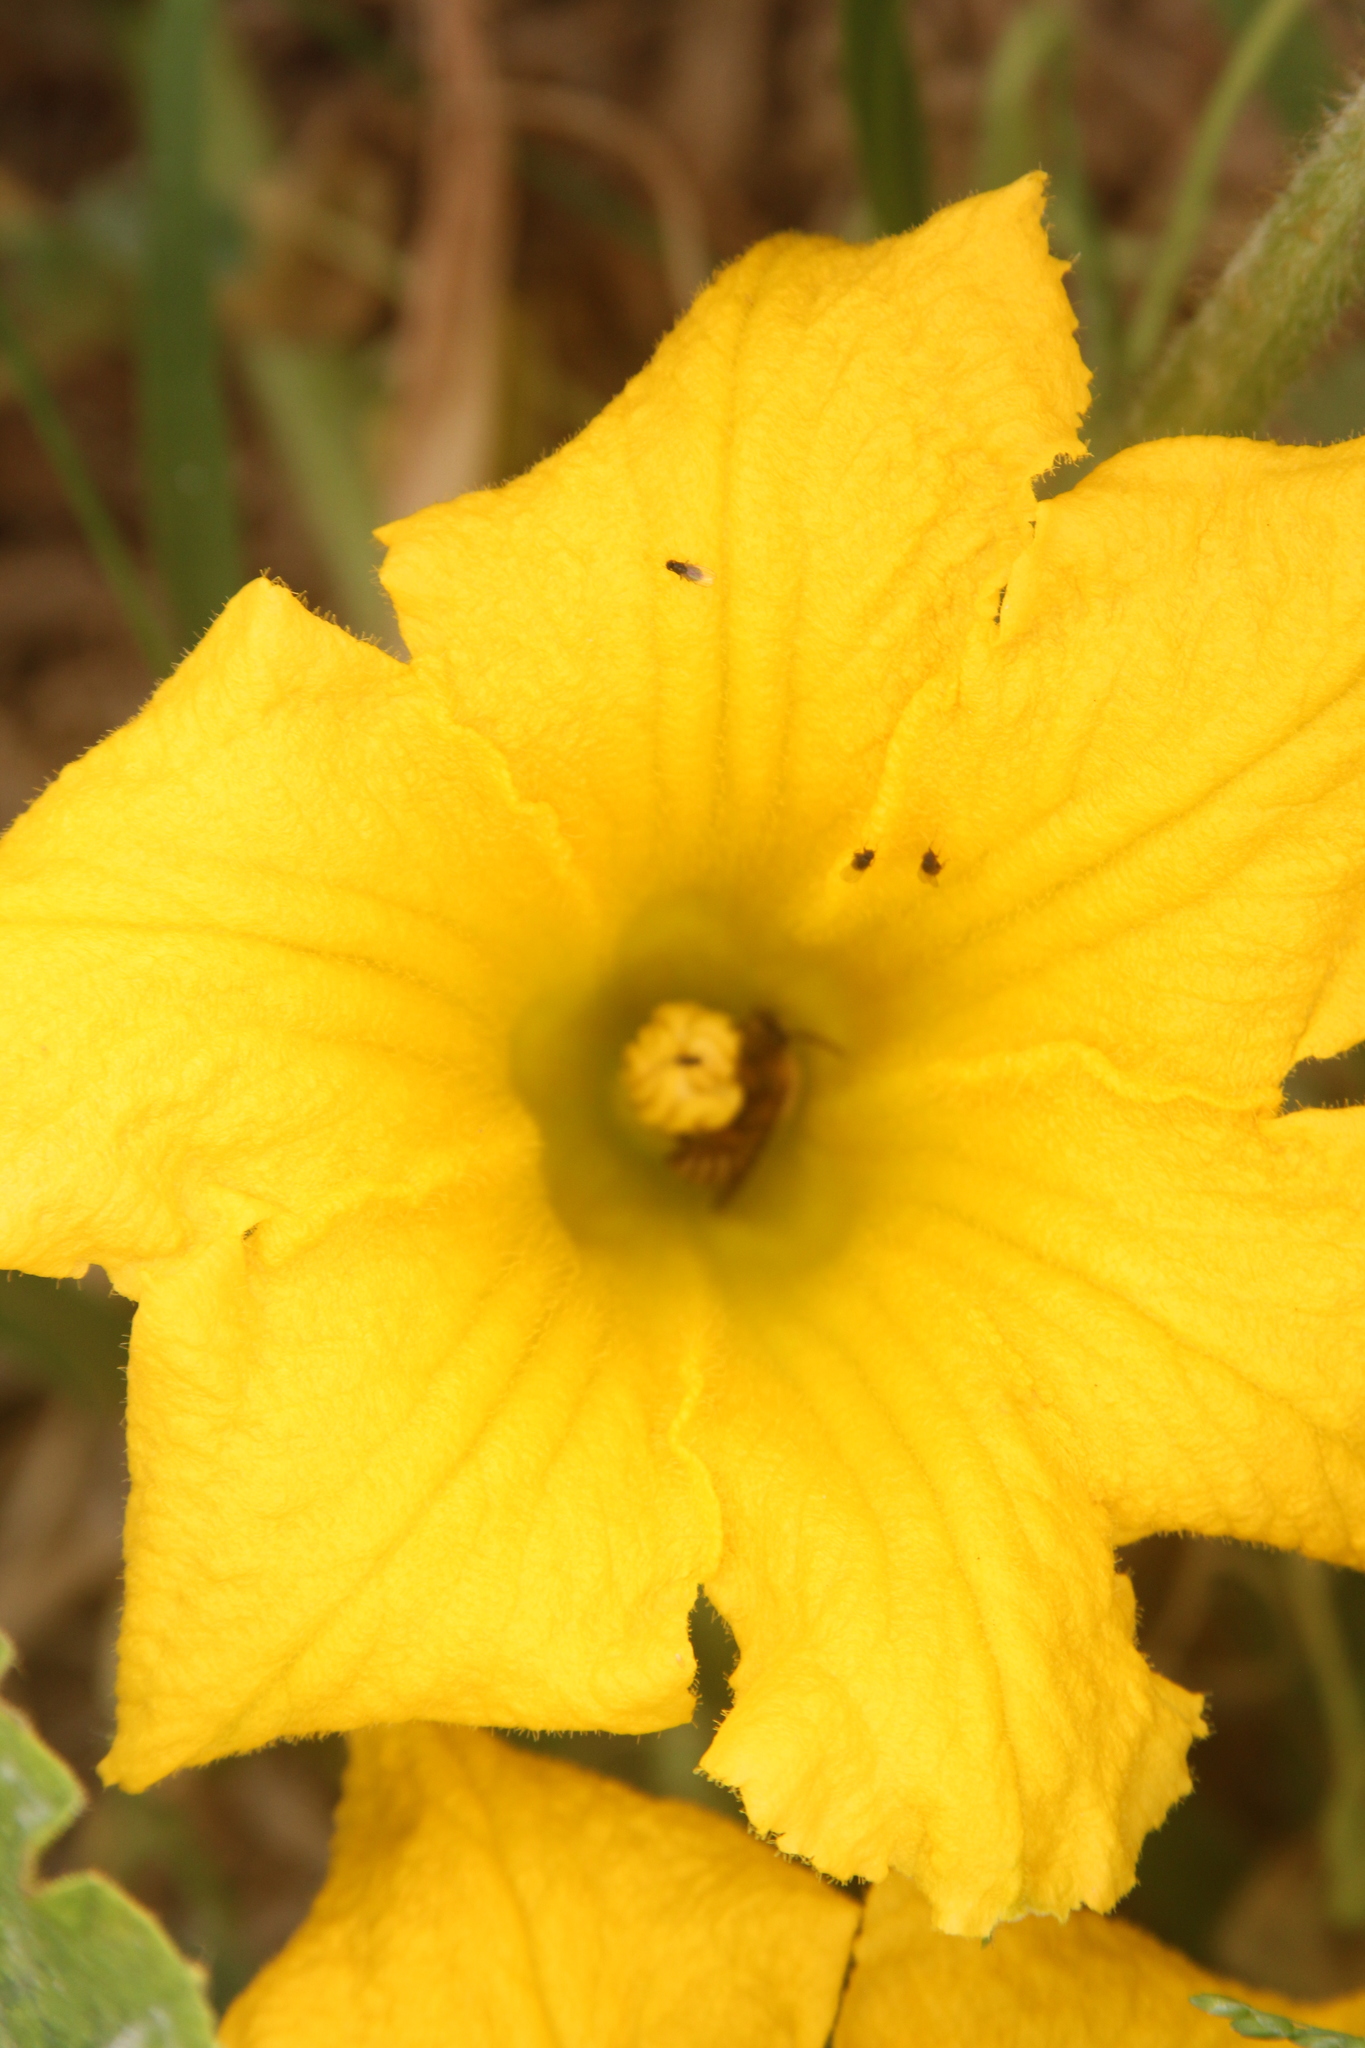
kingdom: Animalia
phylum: Arthropoda
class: Insecta
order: Hymenoptera
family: Apidae
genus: Peponapis
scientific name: Peponapis pruinosa
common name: Pruinose squash bee
